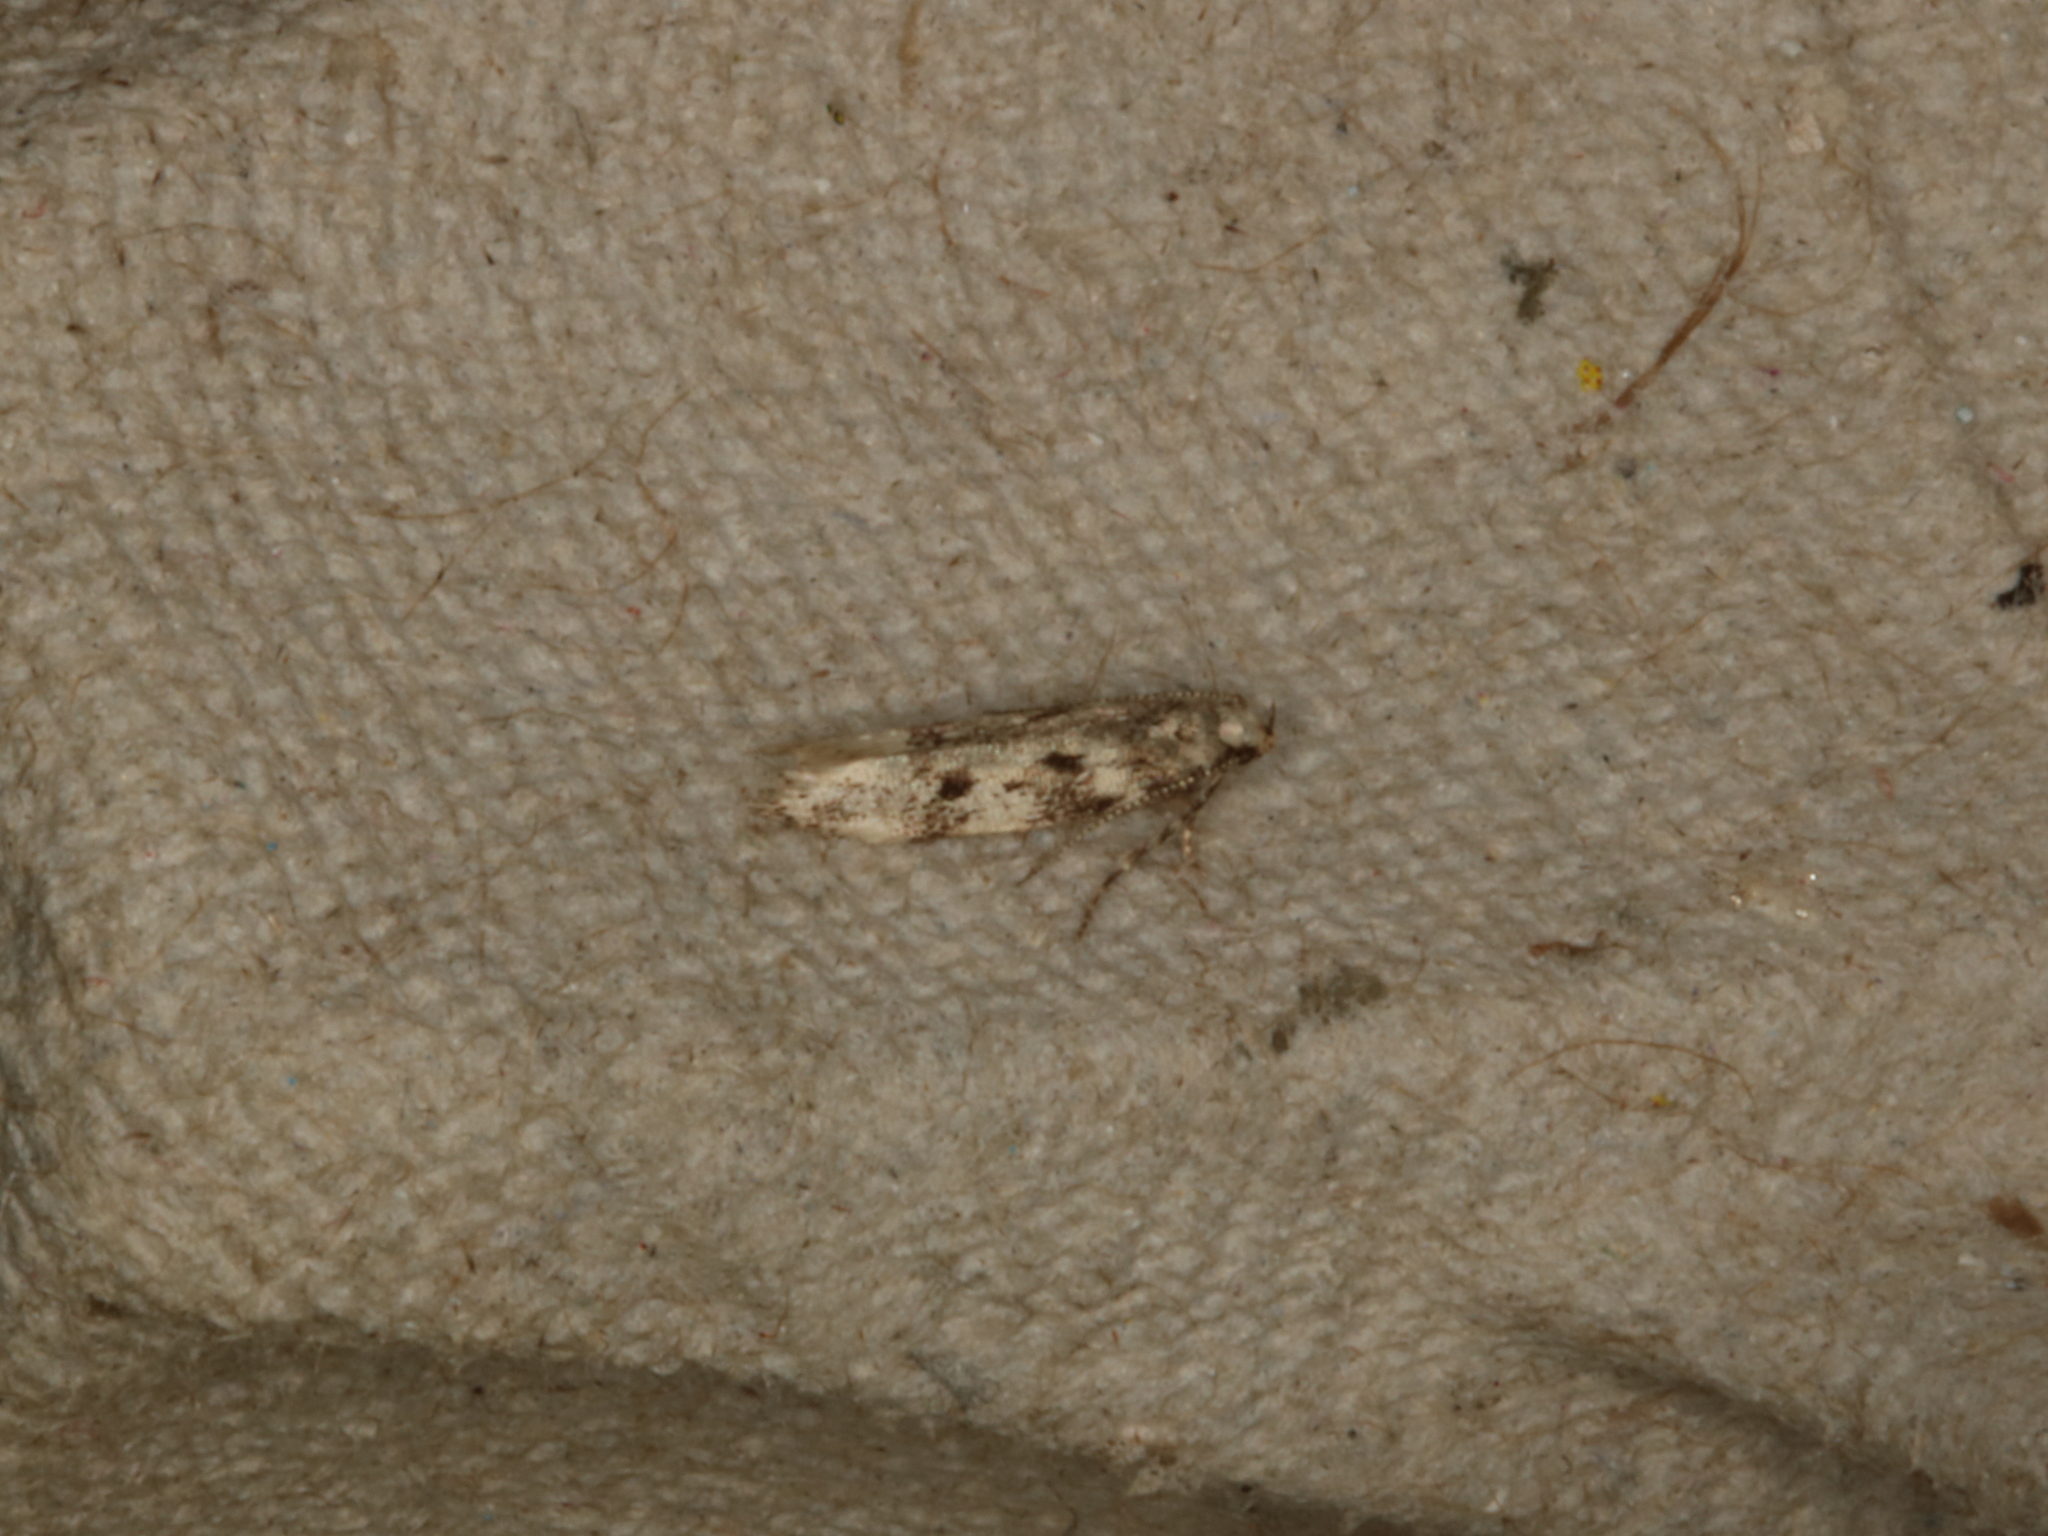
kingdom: Animalia
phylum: Arthropoda
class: Insecta
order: Lepidoptera
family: Gelechiidae
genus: Chionodes
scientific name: Chionodes electella
